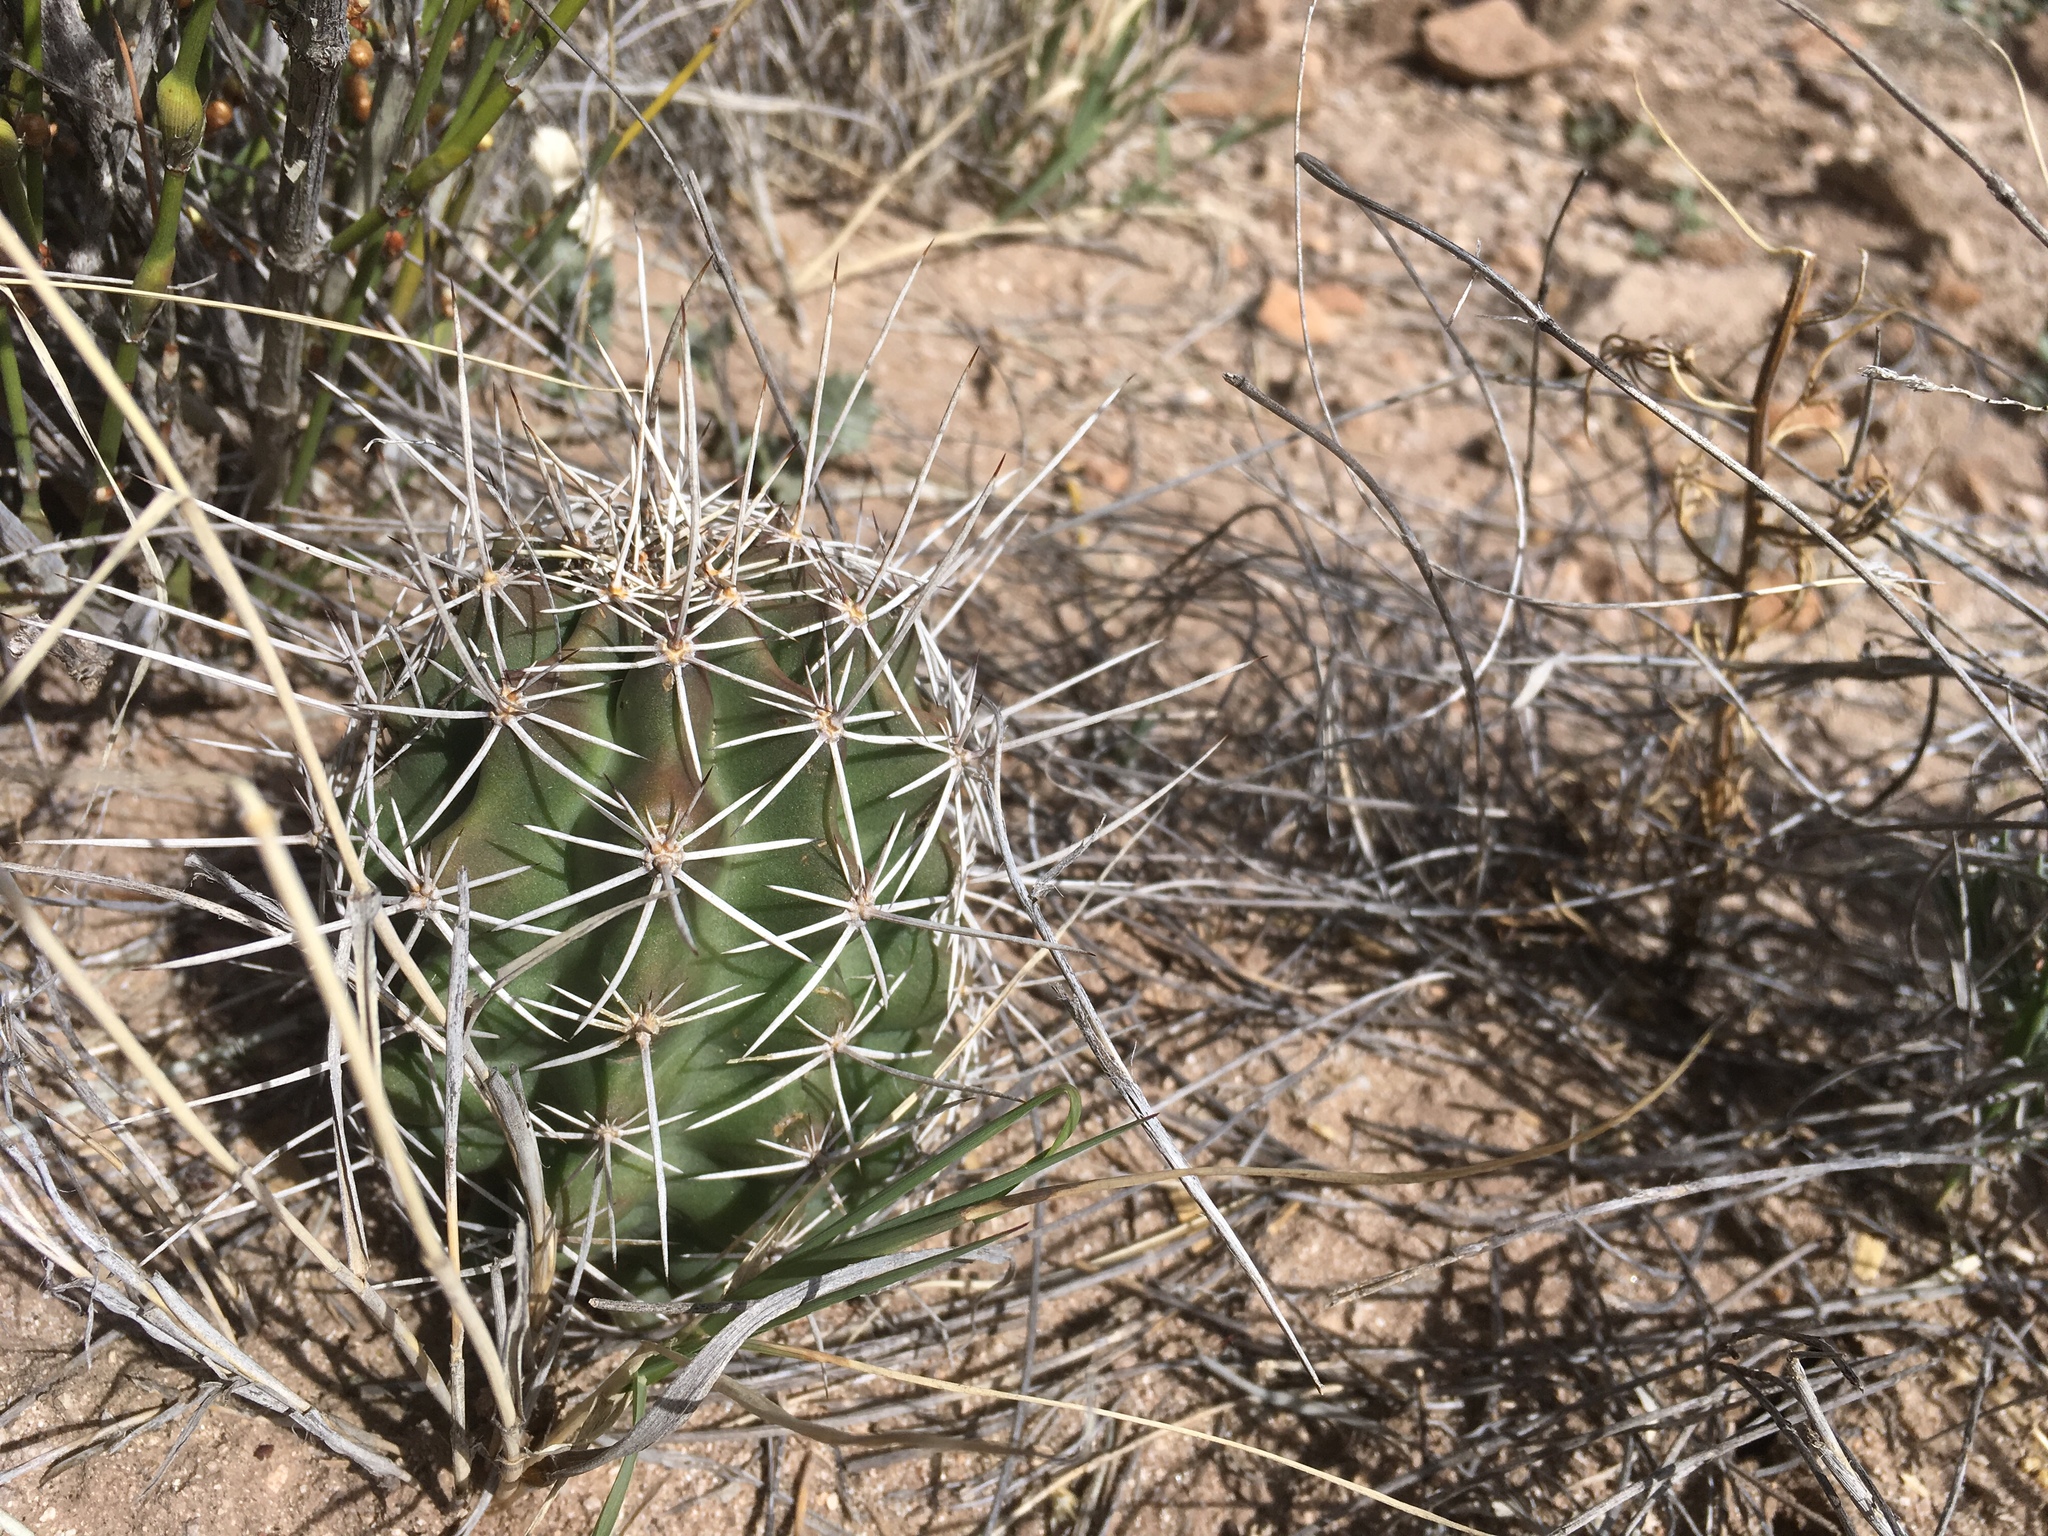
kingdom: Plantae
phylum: Tracheophyta
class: Magnoliopsida
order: Caryophyllales
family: Cactaceae
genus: Echinocereus
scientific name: Echinocereus fendleri
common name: Fendler's hedgehog cactus
